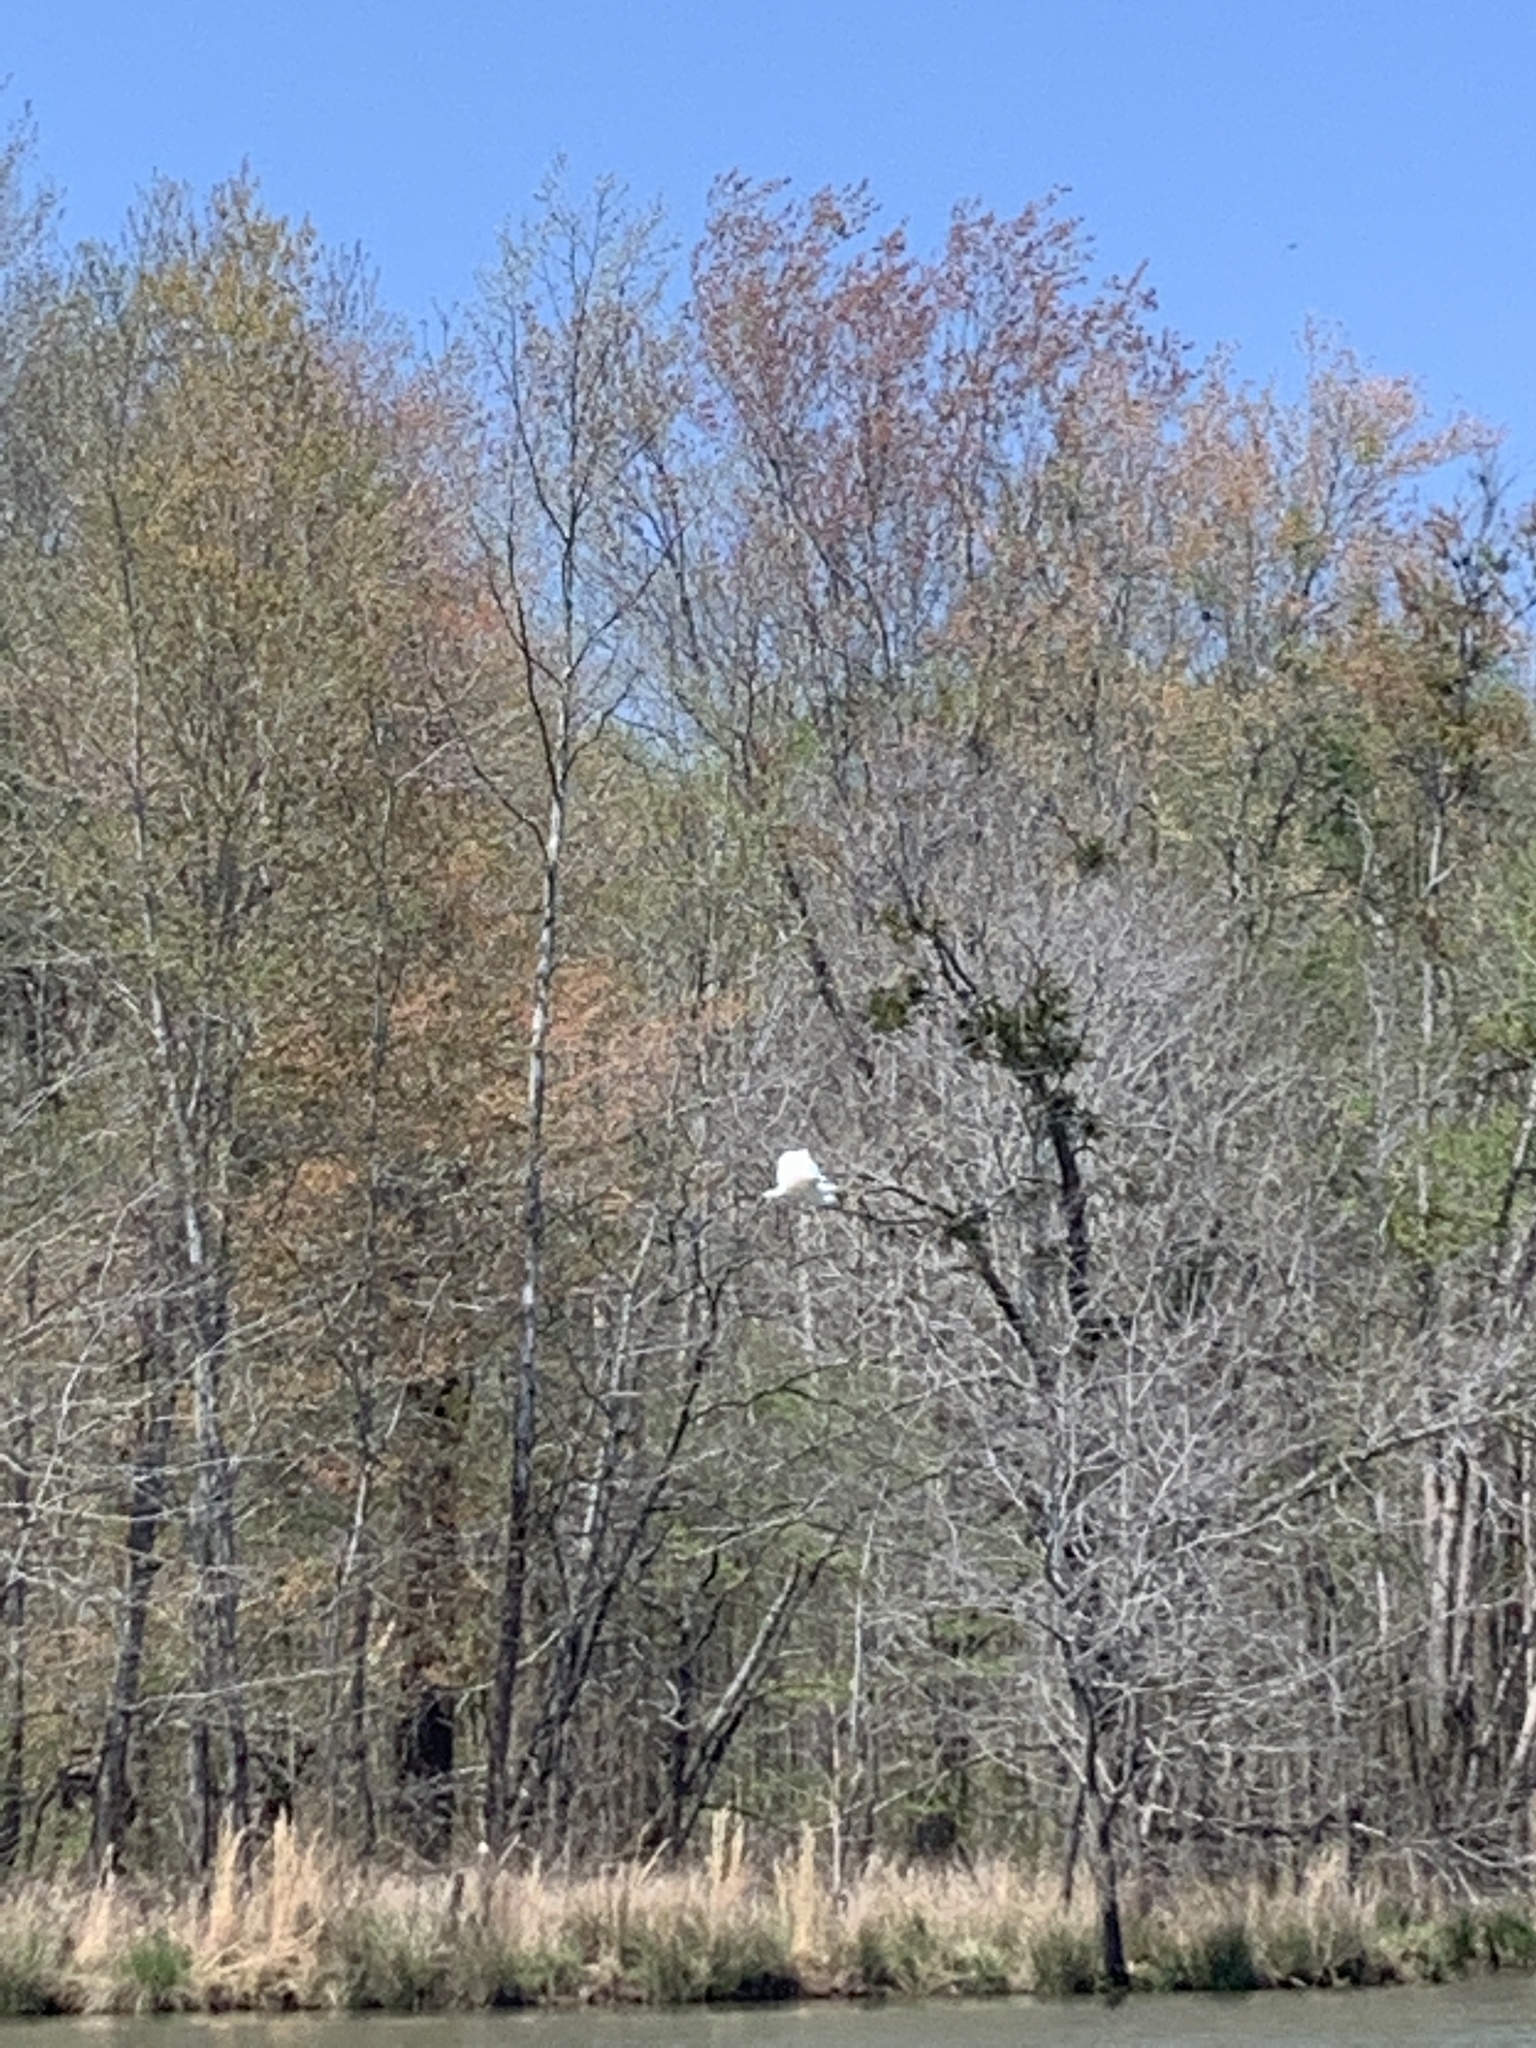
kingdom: Animalia
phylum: Chordata
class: Aves
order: Pelecaniformes
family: Ardeidae
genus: Ardea
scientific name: Ardea alba
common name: Great egret
